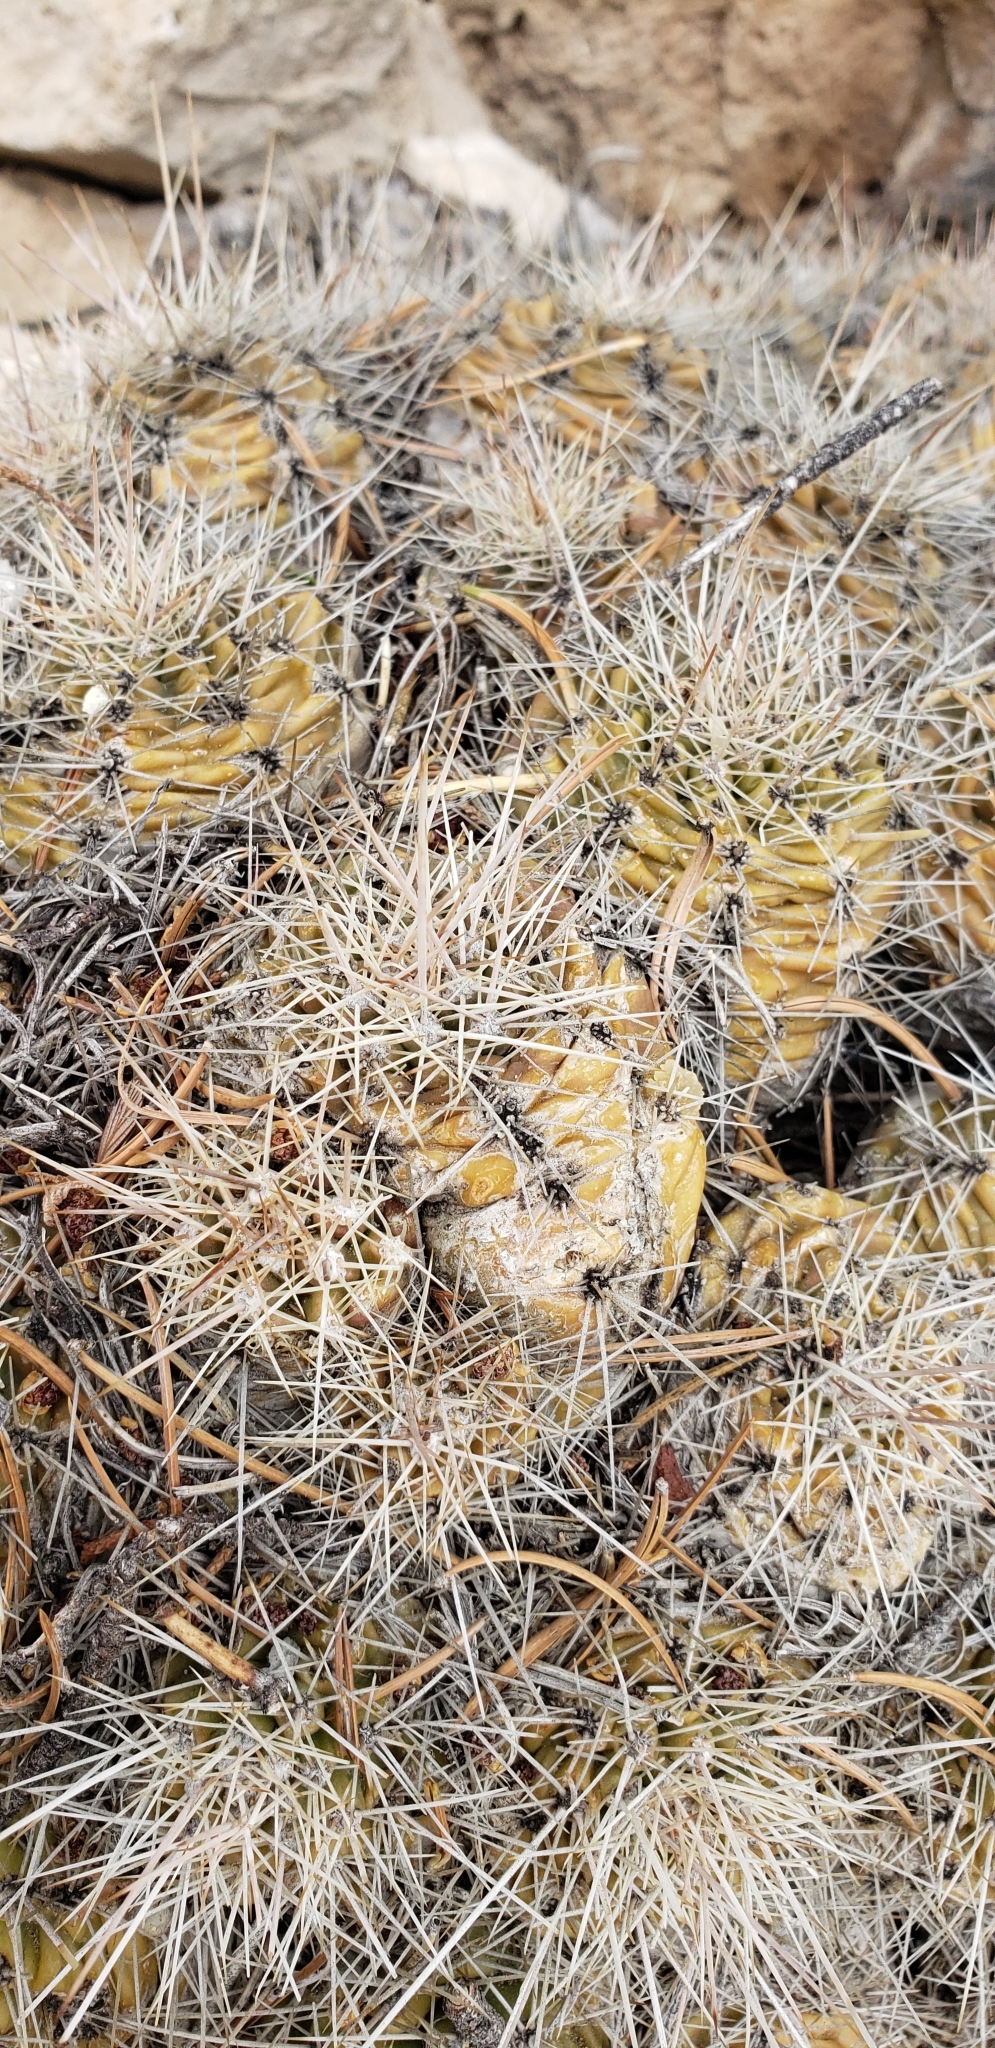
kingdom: Plantae
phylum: Tracheophyta
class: Magnoliopsida
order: Caryophyllales
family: Cactaceae
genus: Echinocereus
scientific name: Echinocereus bakeri
